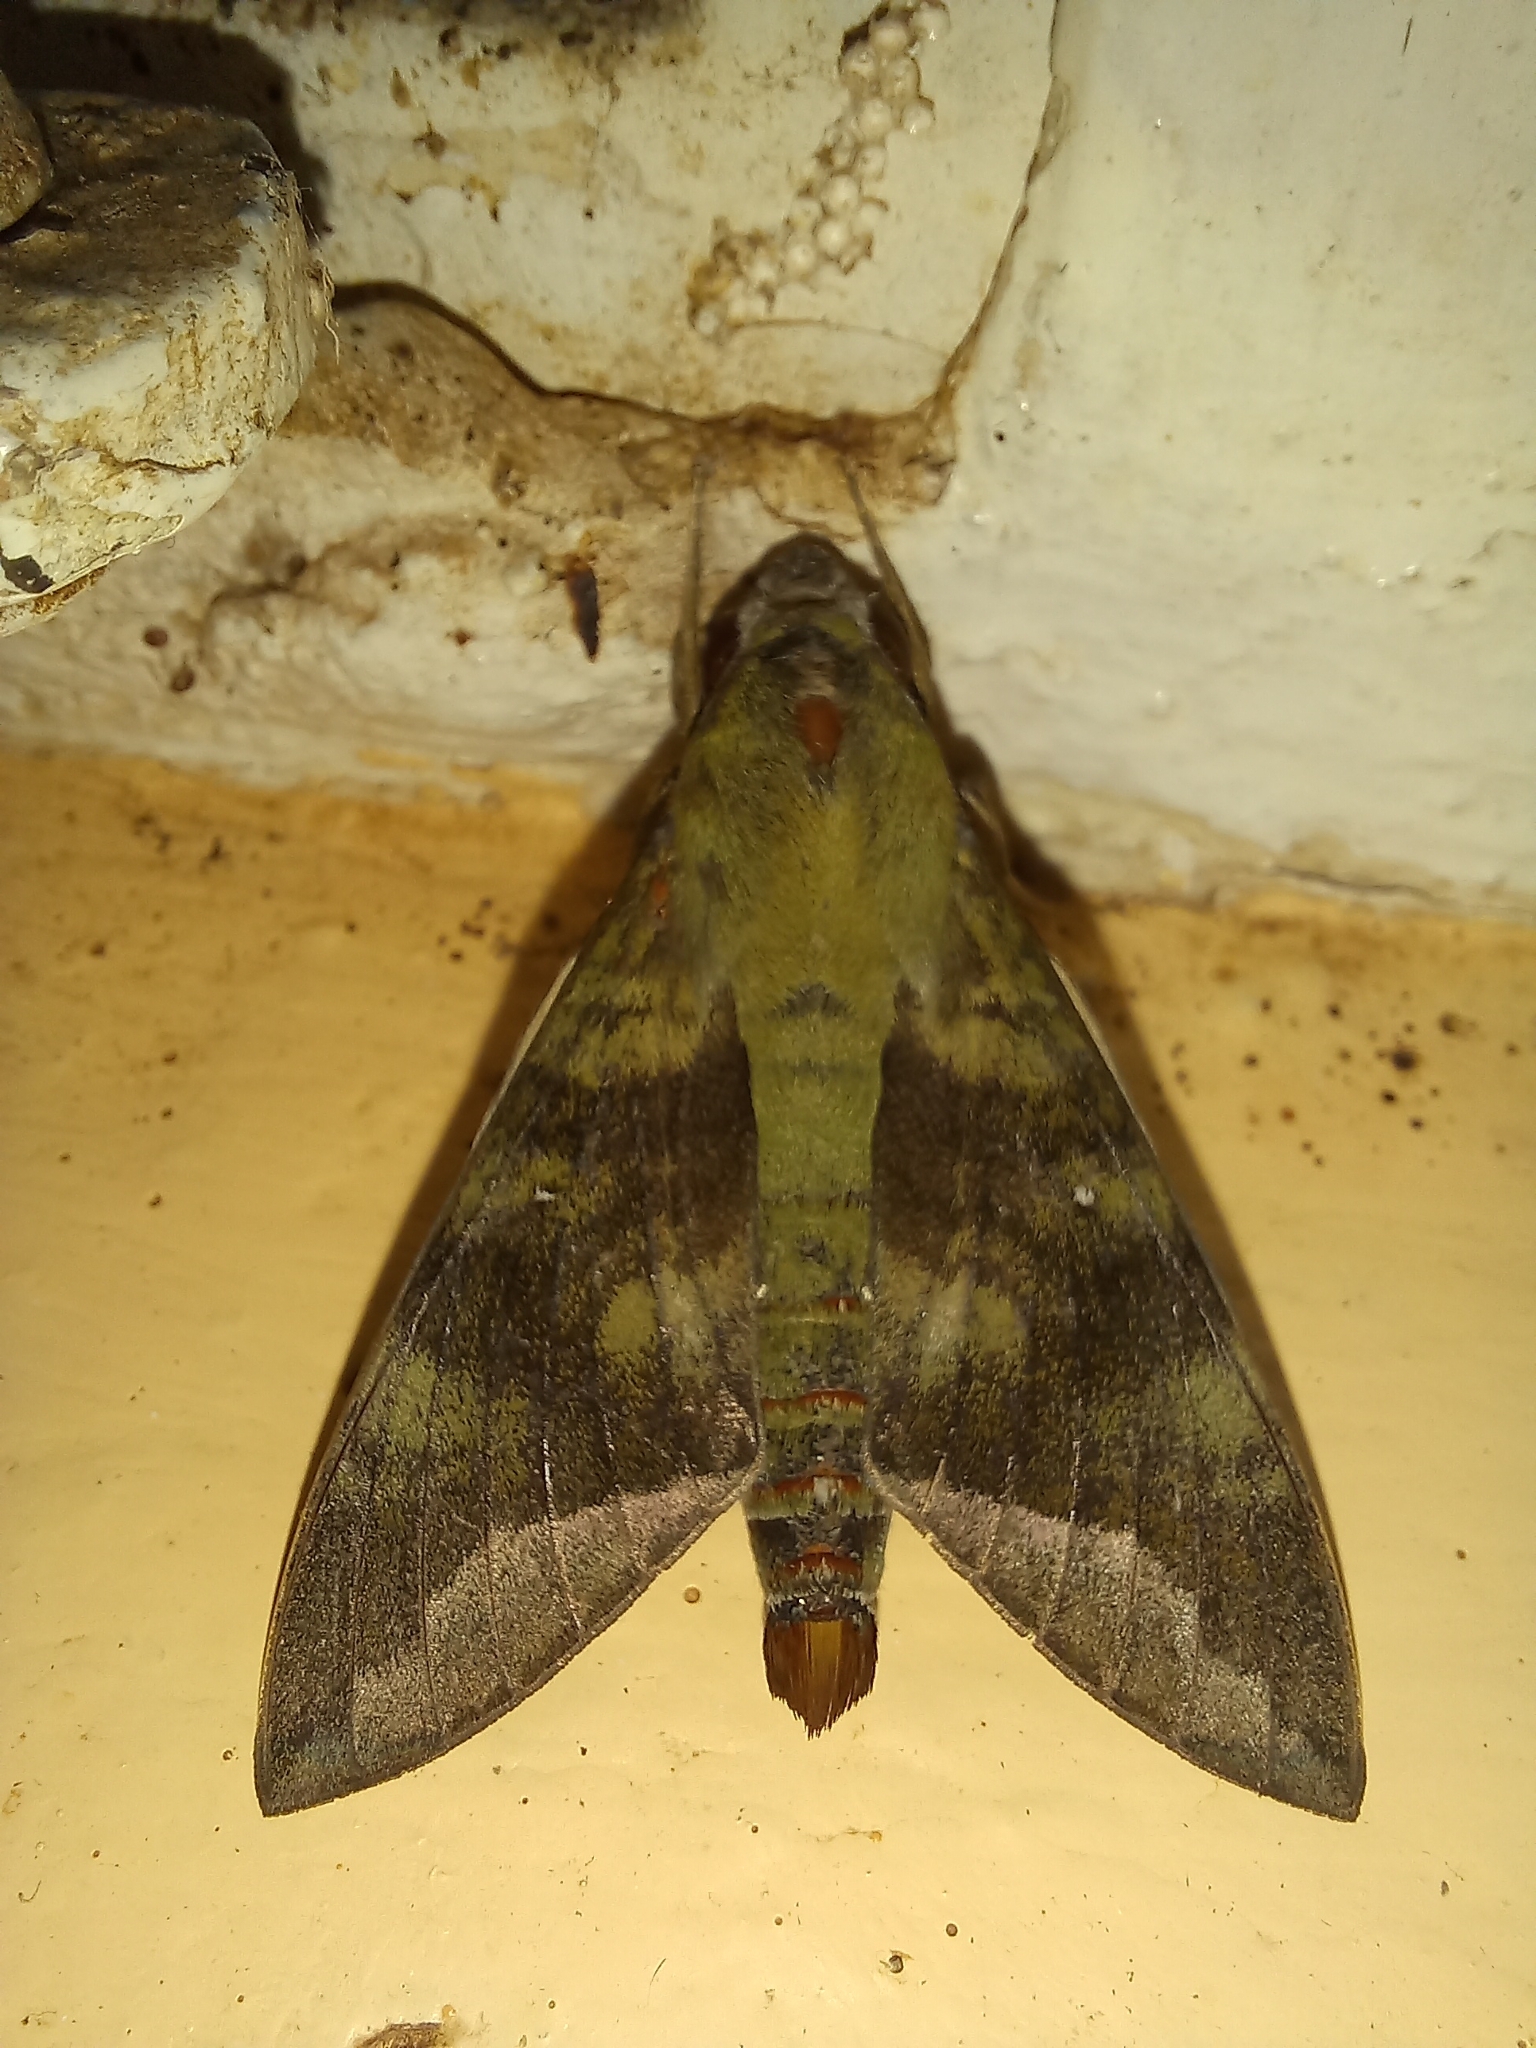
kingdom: Animalia
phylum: Arthropoda
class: Insecta
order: Lepidoptera
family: Sphingidae
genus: Nephele
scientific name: Nephele comma
